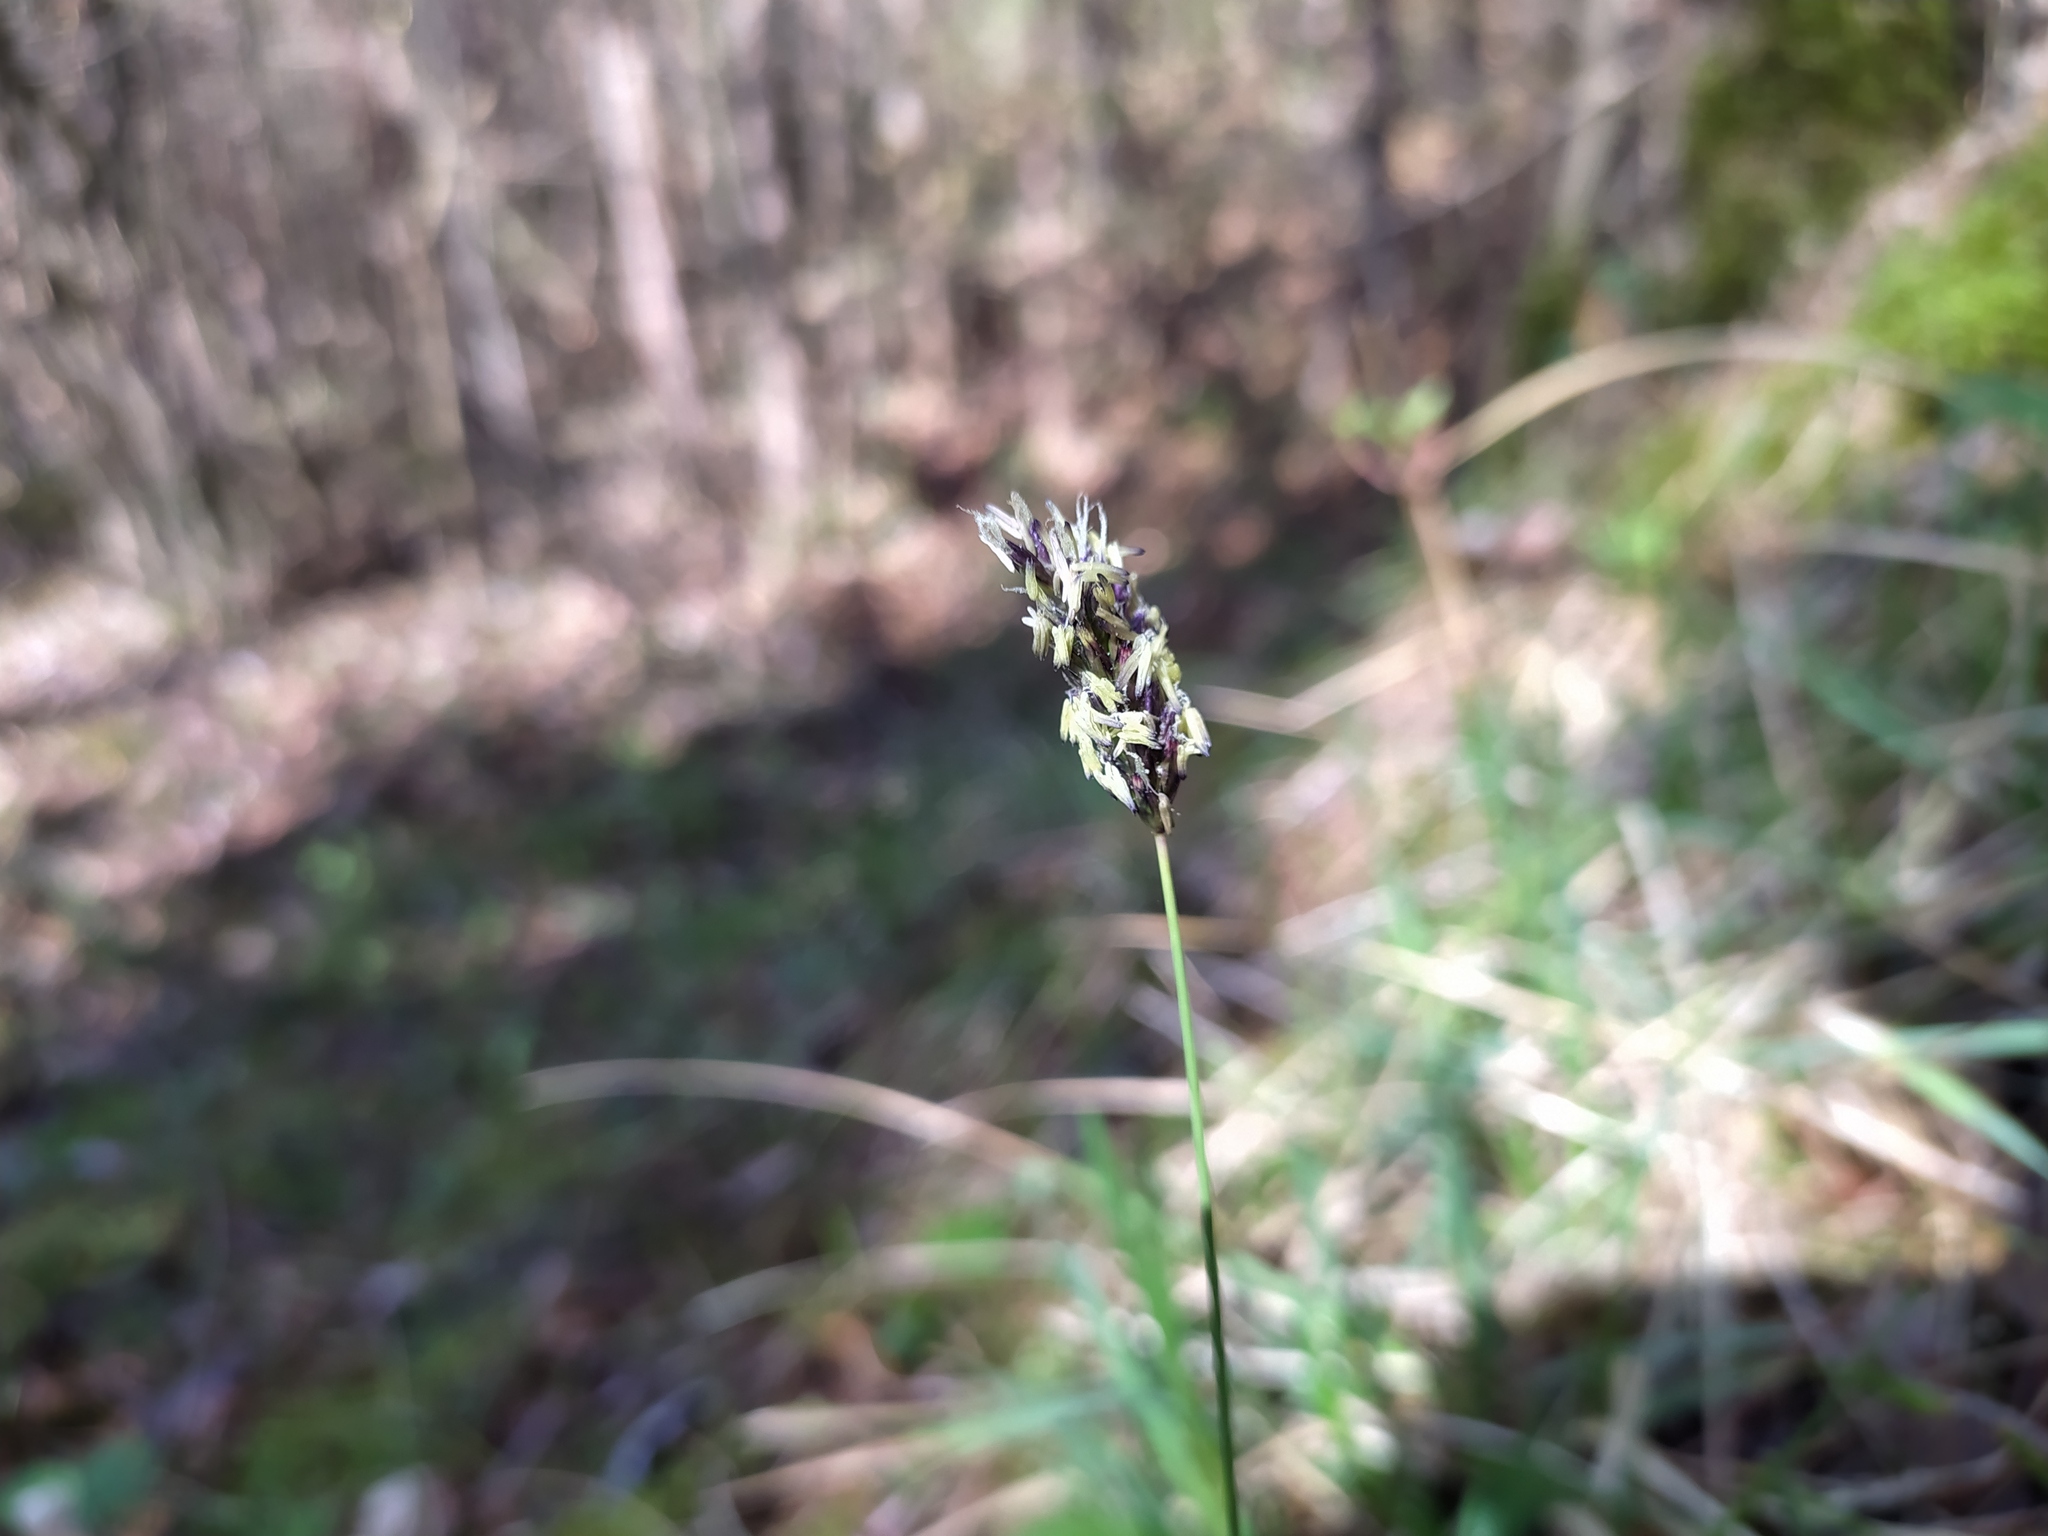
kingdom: Plantae
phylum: Tracheophyta
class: Liliopsida
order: Poales
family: Poaceae
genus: Sesleria
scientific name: Sesleria caerulea
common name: Blue moor-grass
